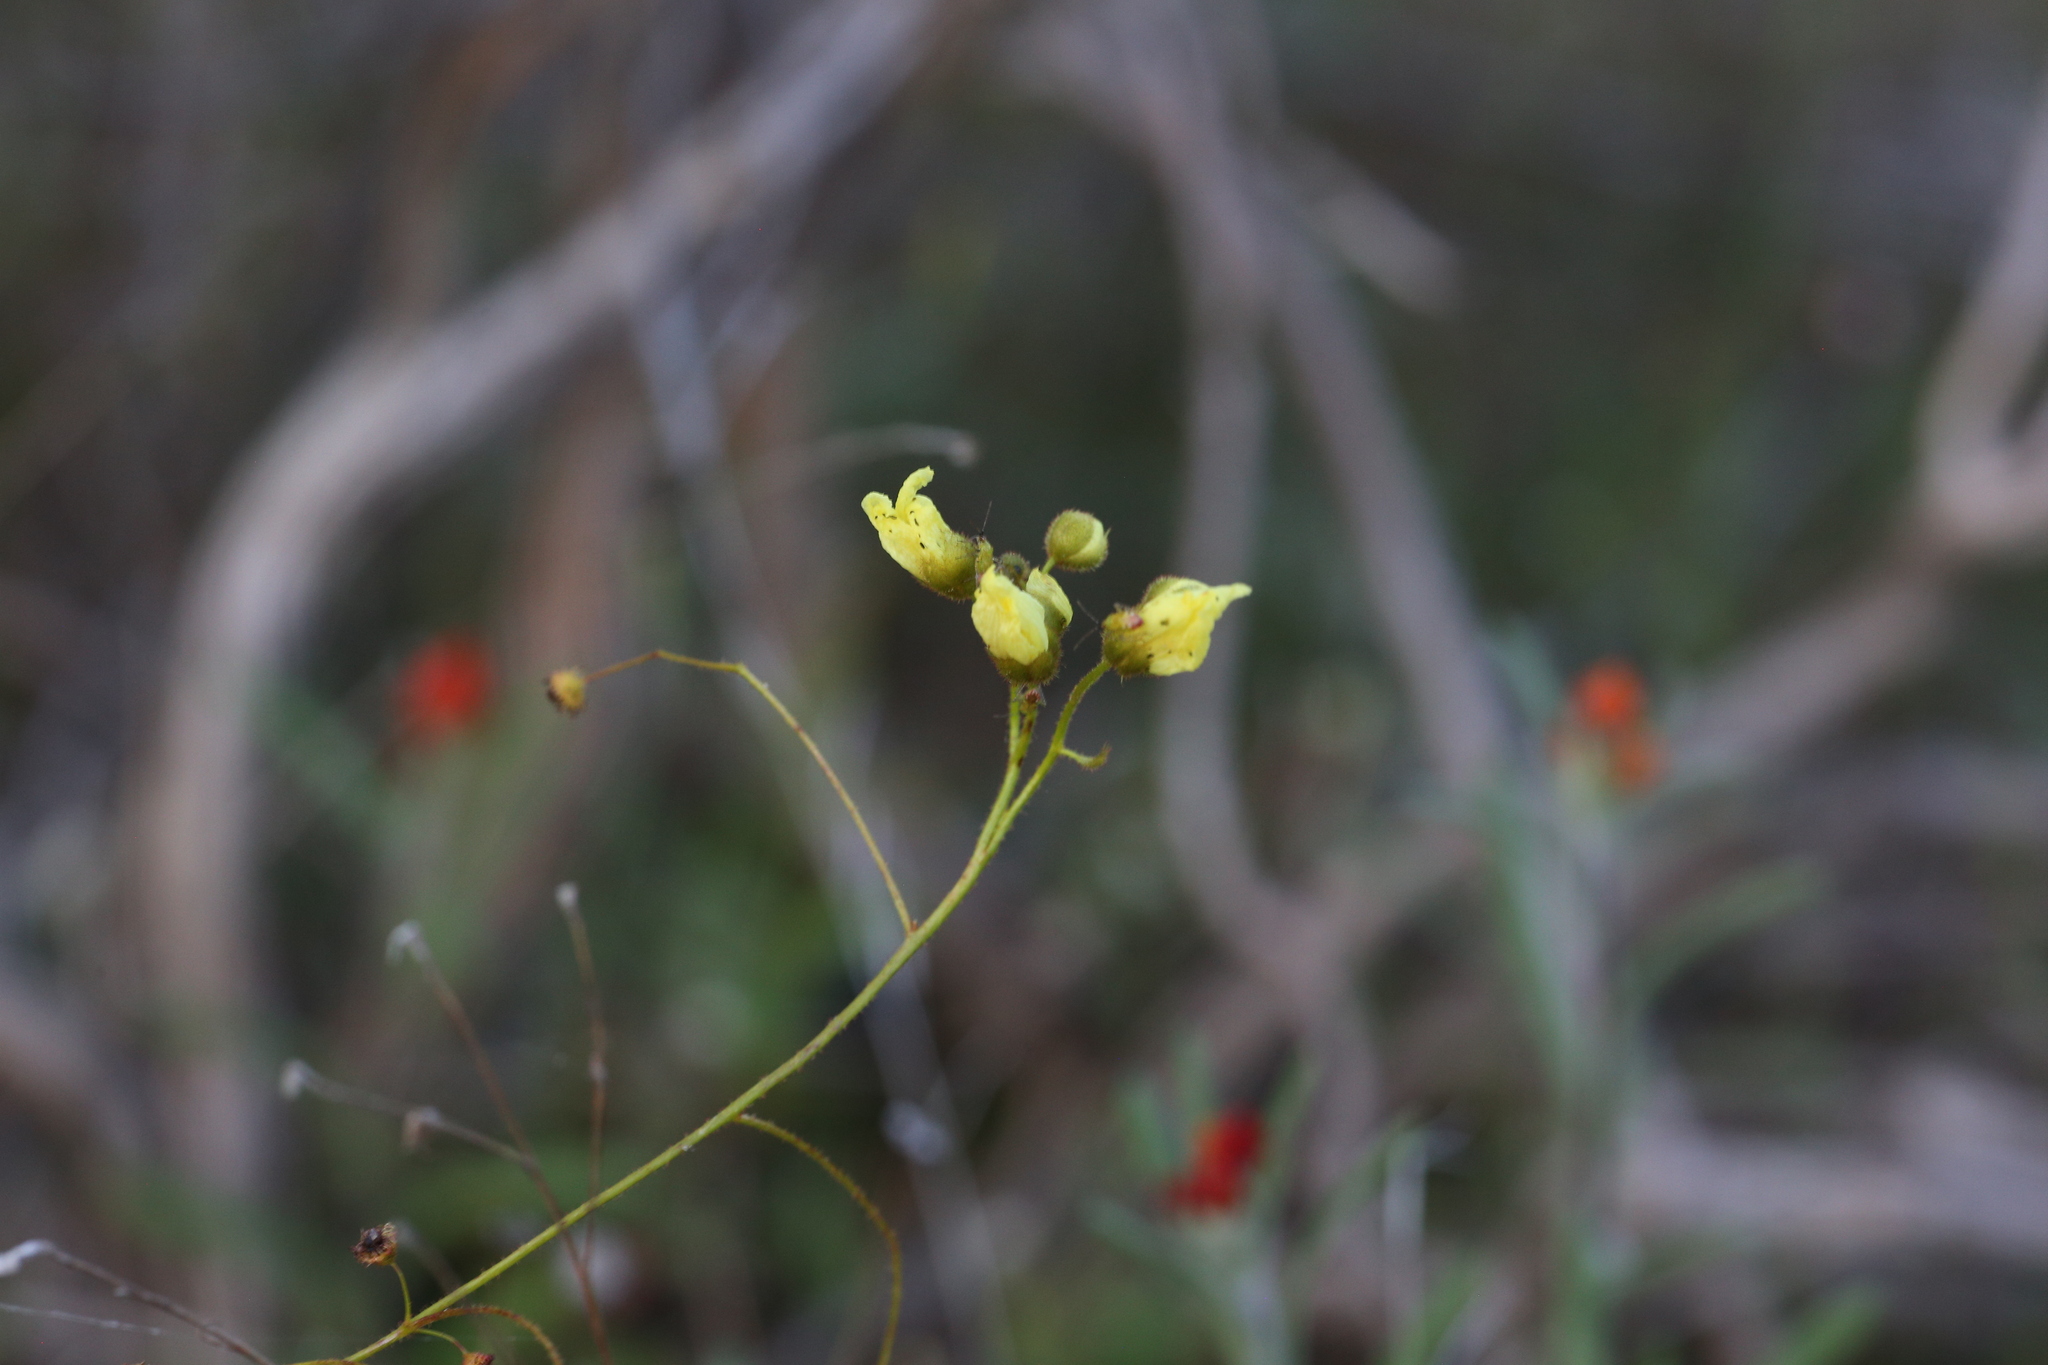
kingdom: Plantae
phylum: Tracheophyta
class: Magnoliopsida
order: Caryophyllales
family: Droseraceae
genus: Drosera
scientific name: Drosera subhirtella
